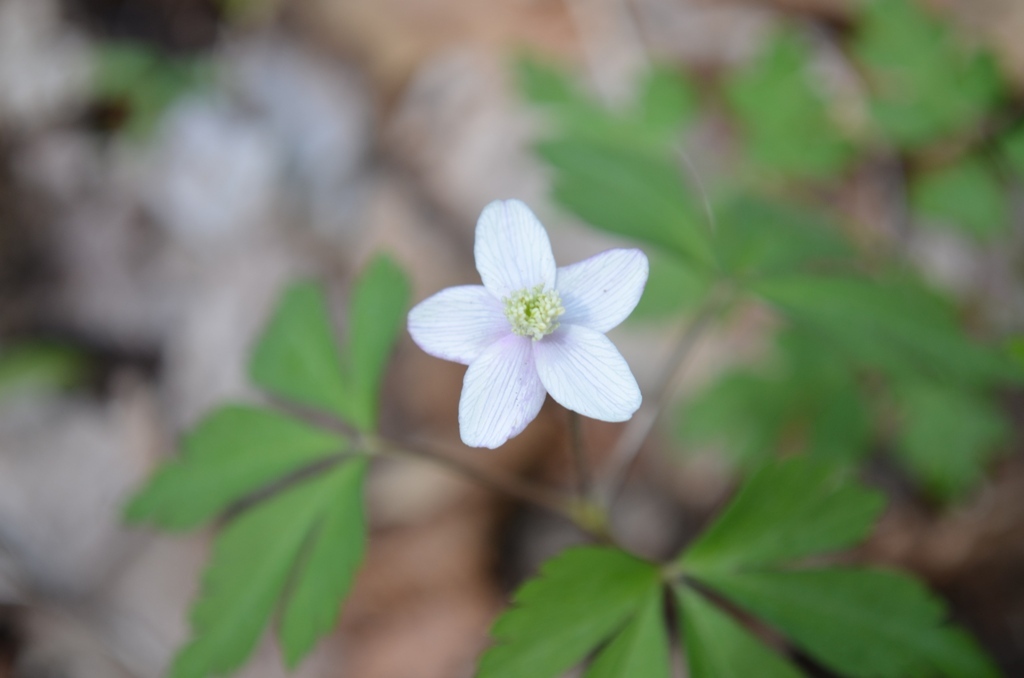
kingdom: Plantae
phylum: Tracheophyta
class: Magnoliopsida
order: Ranunculales
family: Ranunculaceae
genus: Anemone
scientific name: Anemone quinquefolia
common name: Wood anemone
